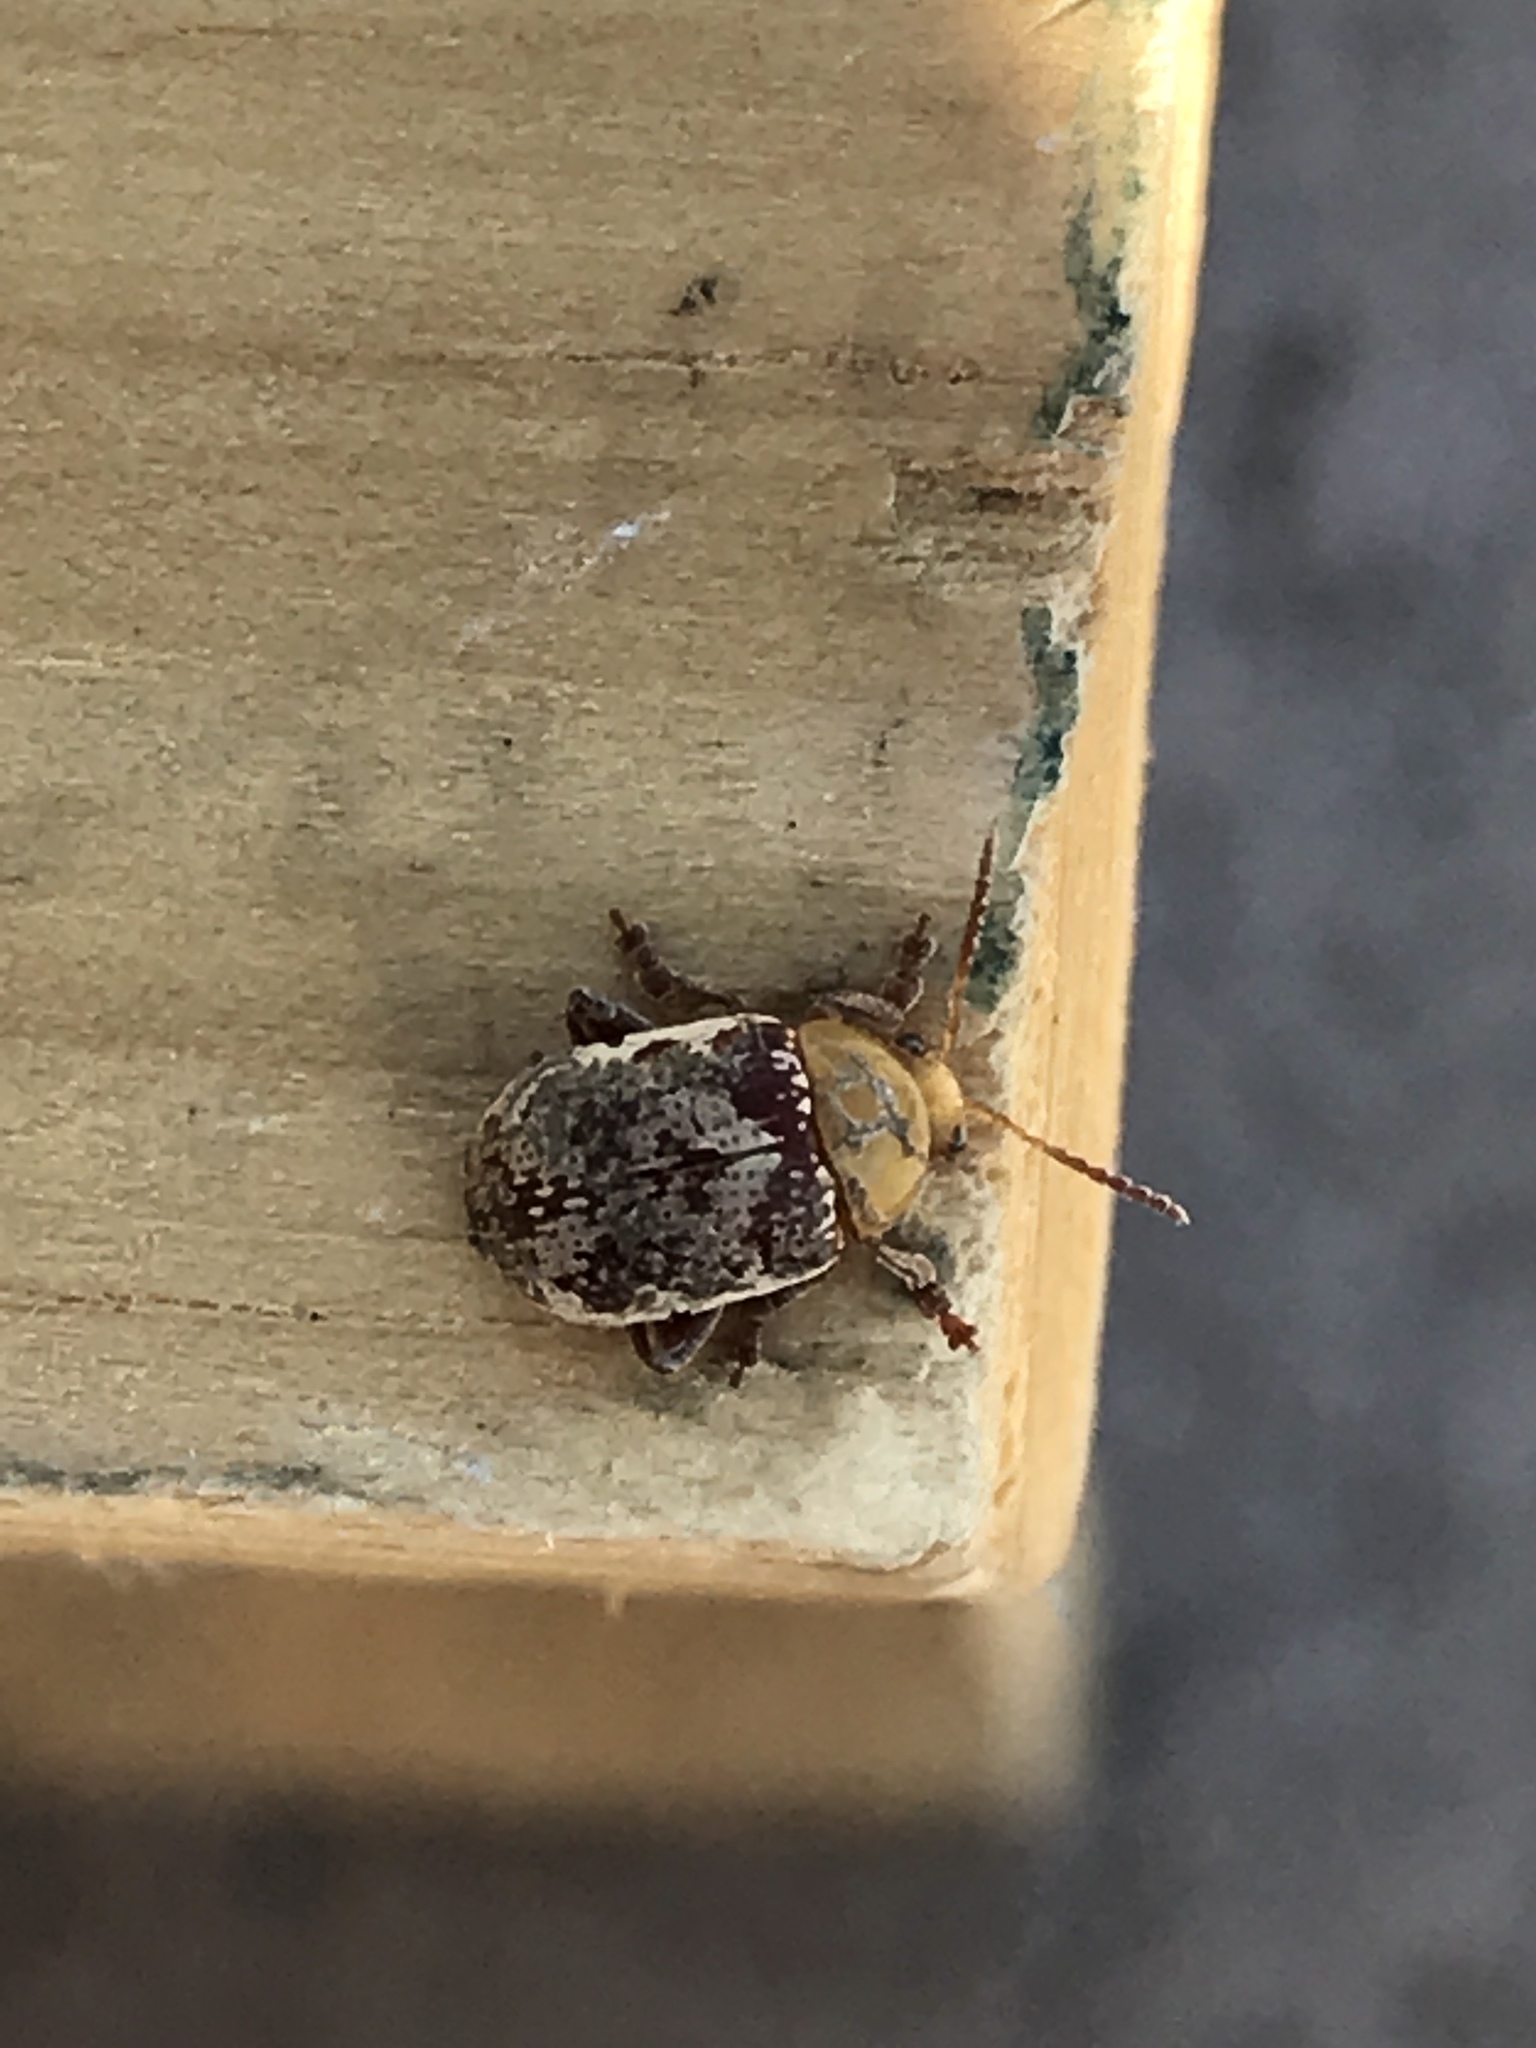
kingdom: Animalia
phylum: Arthropoda
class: Insecta
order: Coleoptera
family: Chrysomelidae
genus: Blepharida
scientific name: Blepharida rhois
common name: Sumac flea beetle
